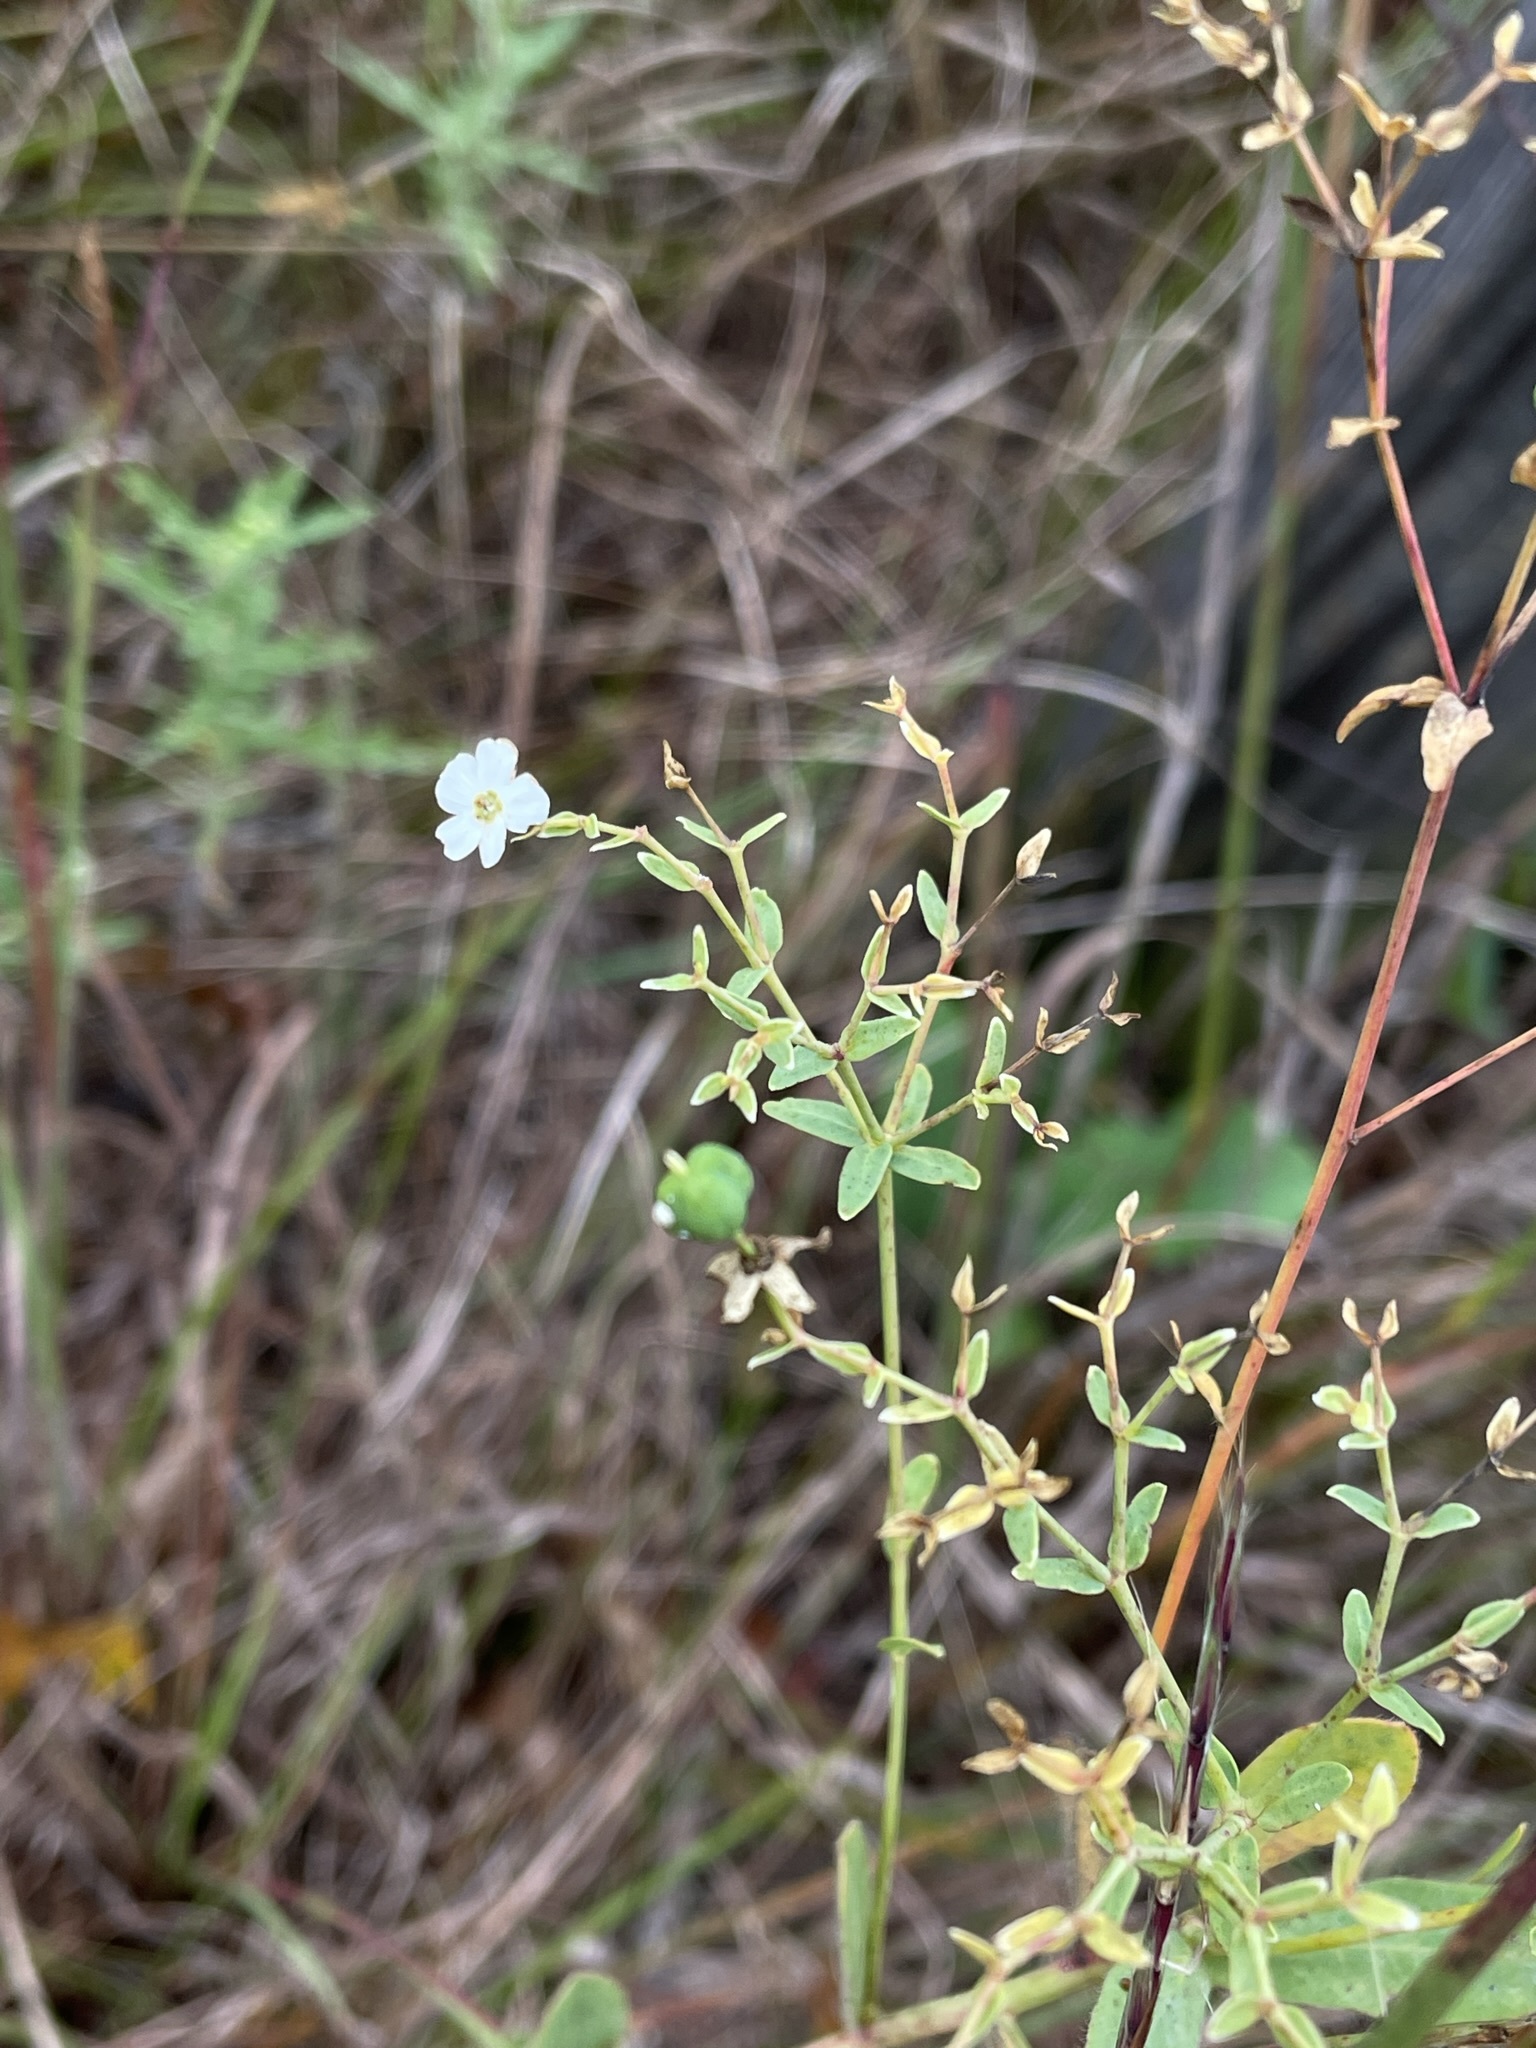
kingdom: Plantae
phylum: Tracheophyta
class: Magnoliopsida
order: Malpighiales
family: Euphorbiaceae
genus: Euphorbia
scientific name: Euphorbia corollata
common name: Flowering spurge
